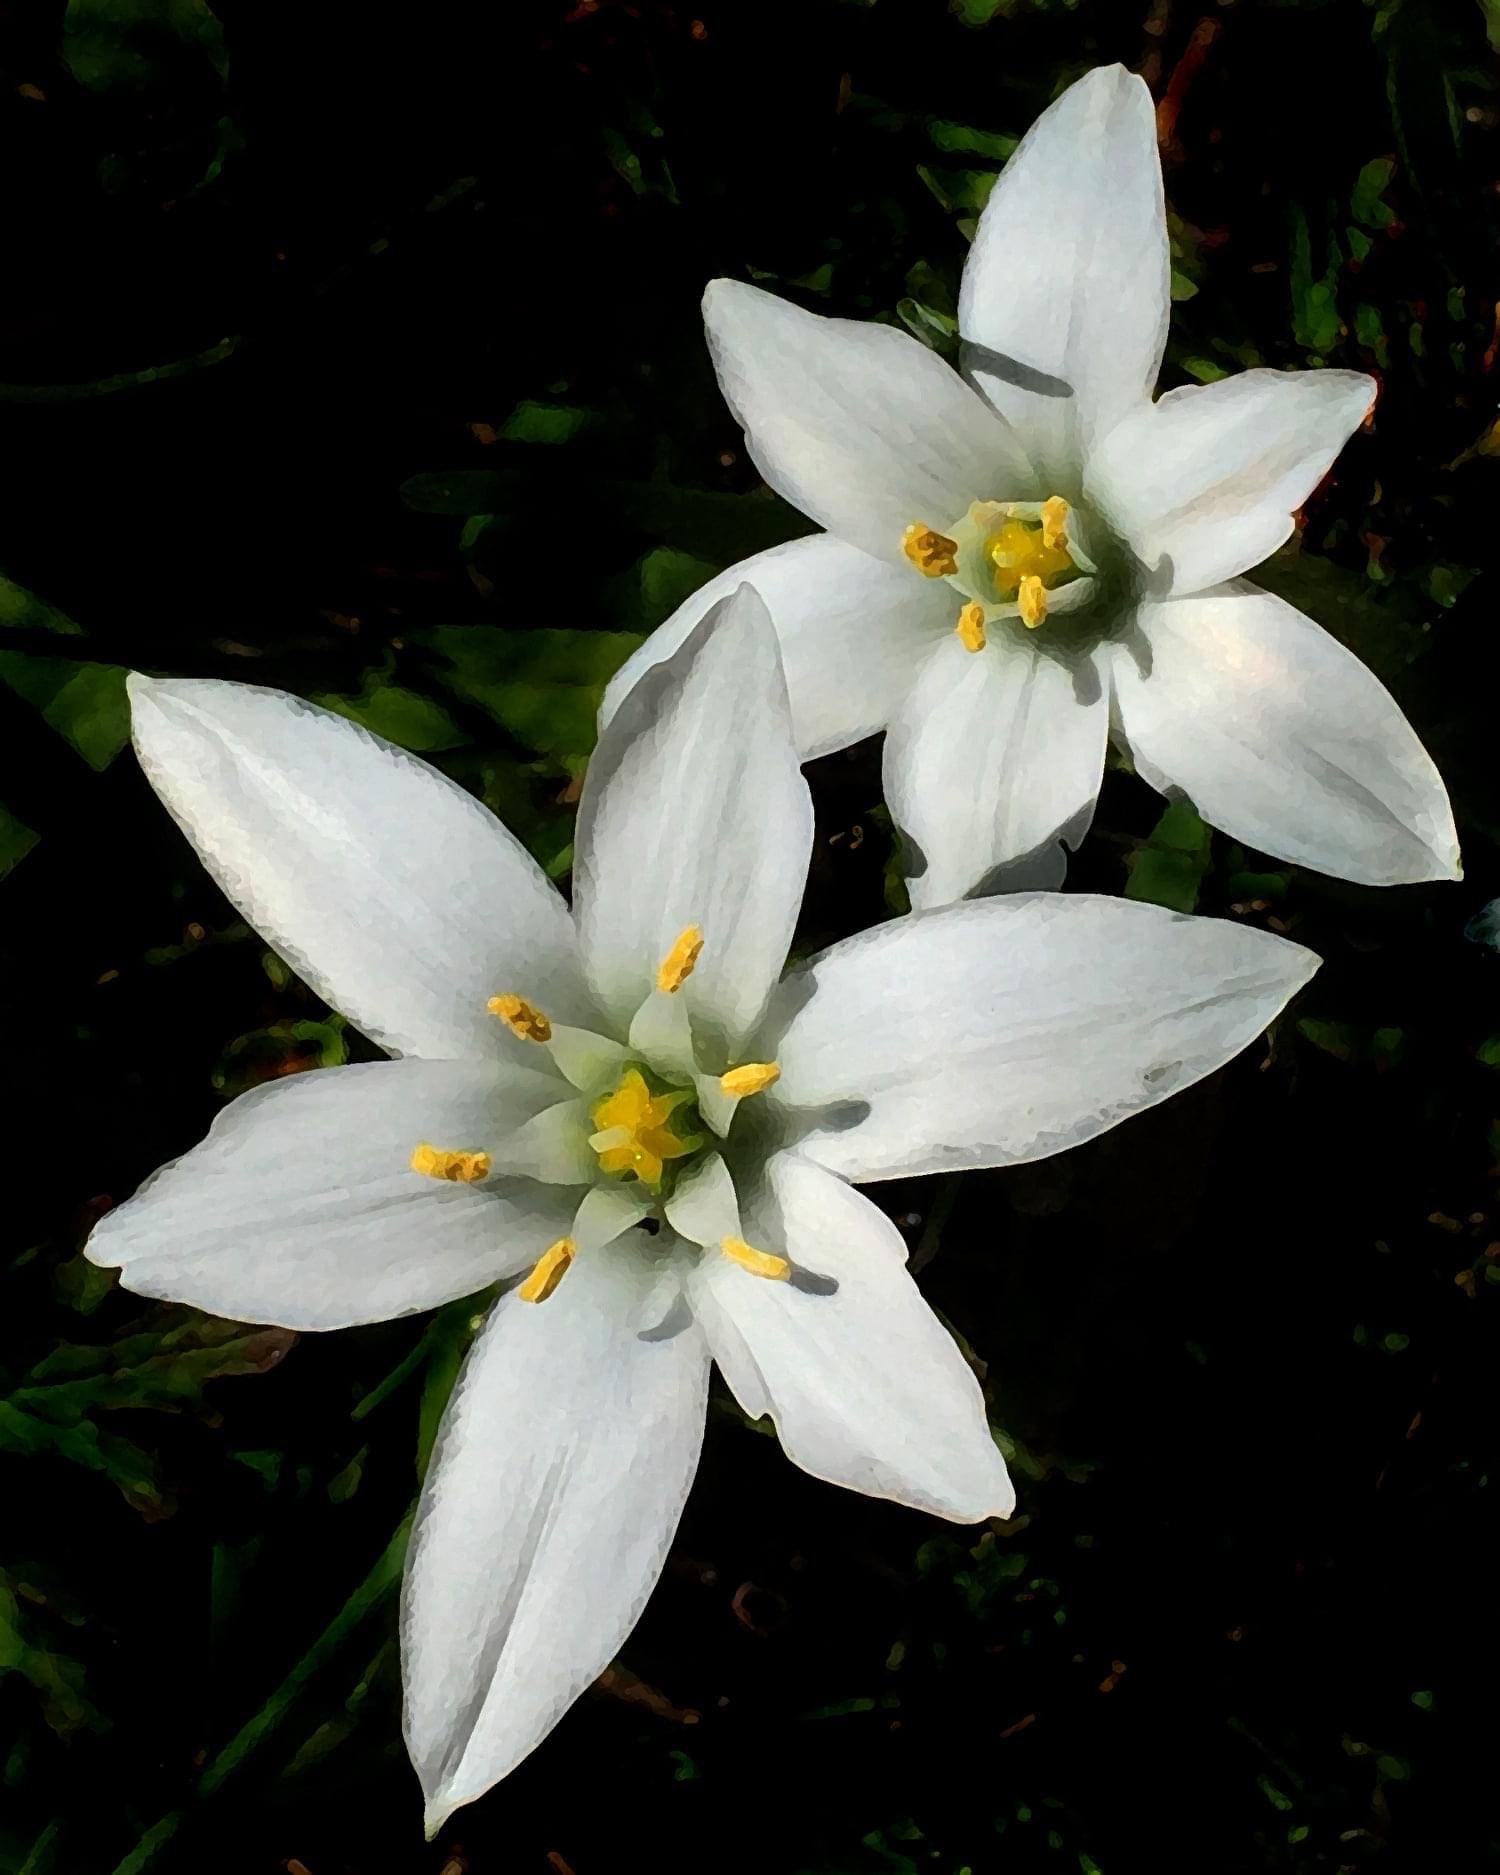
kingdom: Plantae
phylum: Tracheophyta
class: Liliopsida
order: Asparagales
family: Asparagaceae
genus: Ornithogalum
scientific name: Ornithogalum umbellatum
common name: Garden star-of-bethlehem
